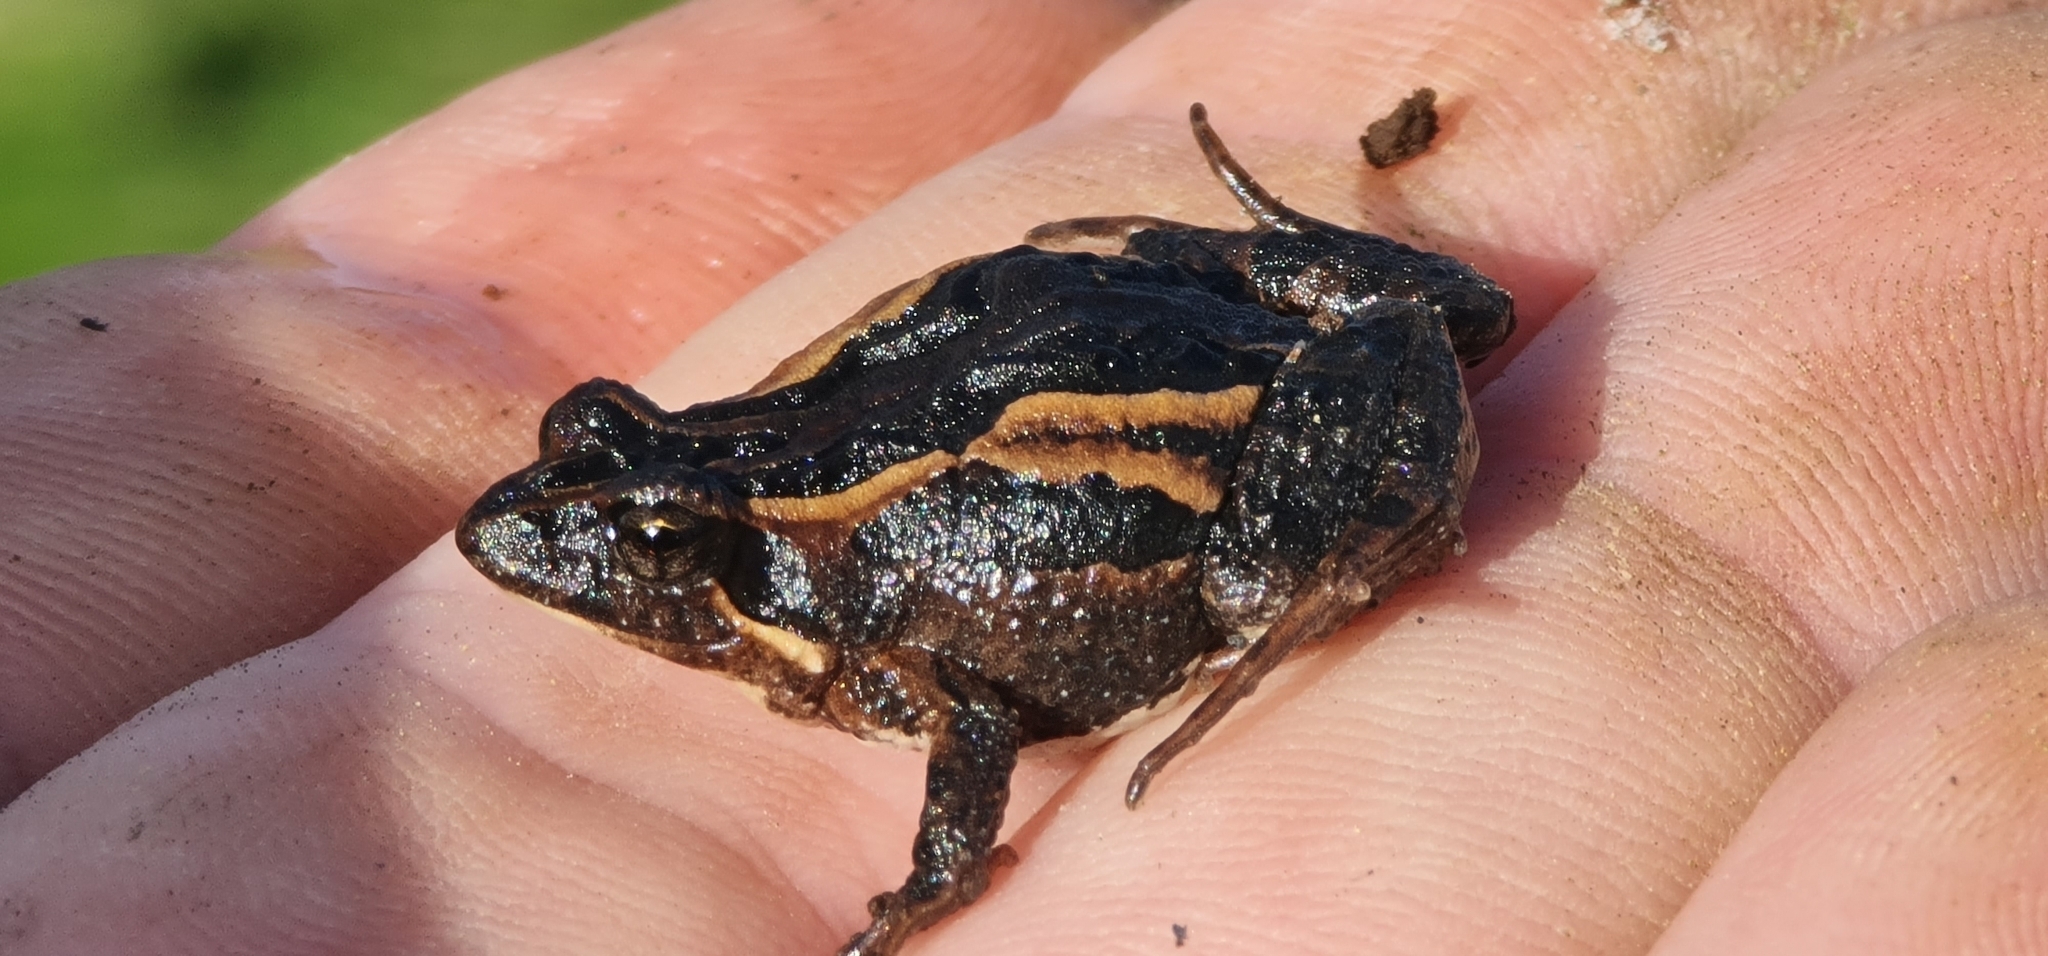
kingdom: Animalia
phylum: Chordata
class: Amphibia
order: Anura
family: Myobatrachidae
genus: Crinia
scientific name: Crinia signifera
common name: Brown froglet
